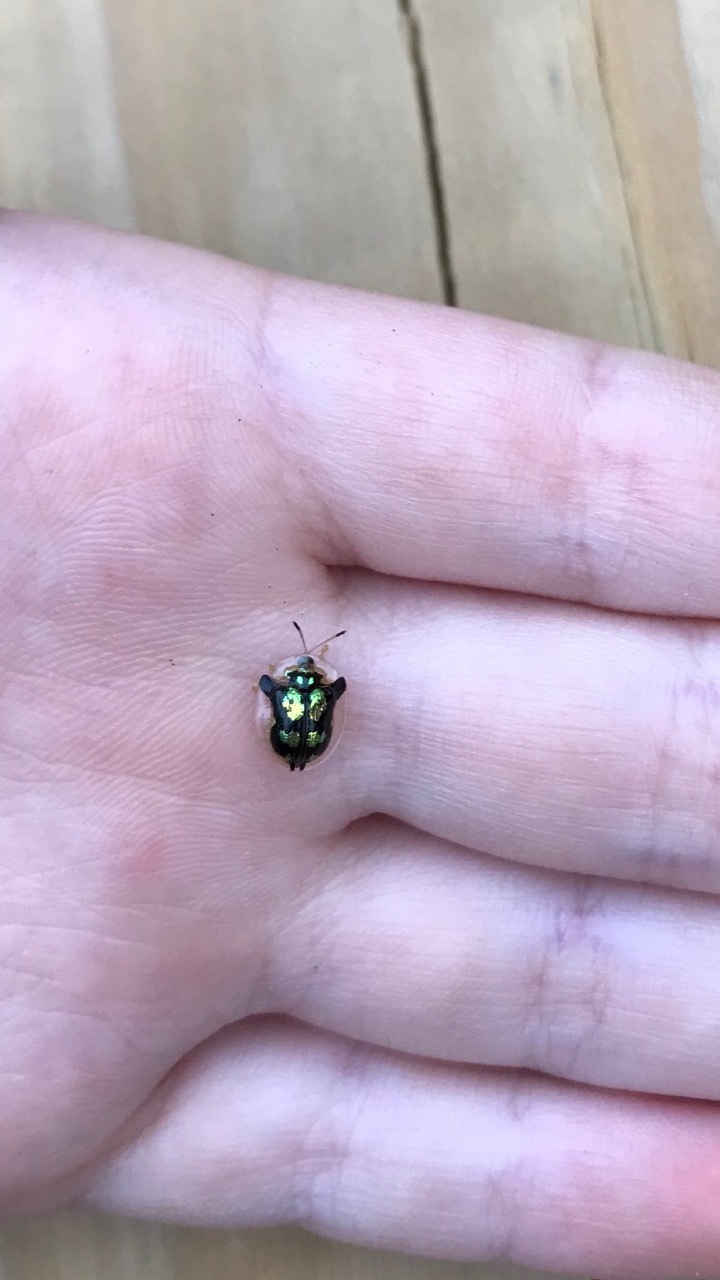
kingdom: Animalia
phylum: Arthropoda
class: Insecta
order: Coleoptera
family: Chrysomelidae
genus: Deloyala
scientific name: Deloyala guttata
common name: Mottled tortoise beetle
